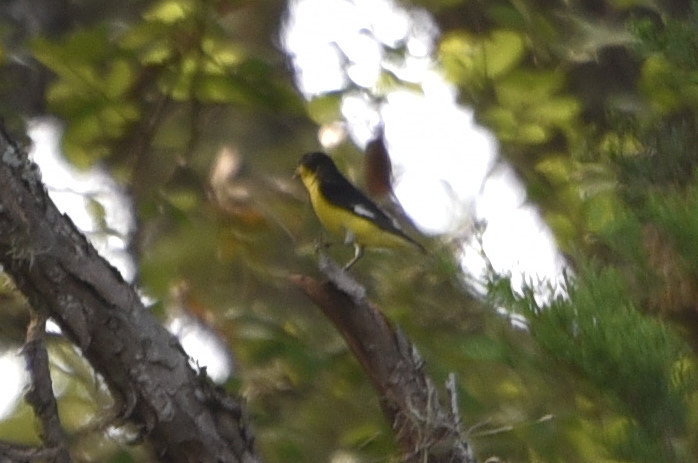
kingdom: Animalia
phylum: Chordata
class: Aves
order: Passeriformes
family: Fringillidae
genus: Spinus
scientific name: Spinus psaltria
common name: Lesser goldfinch
